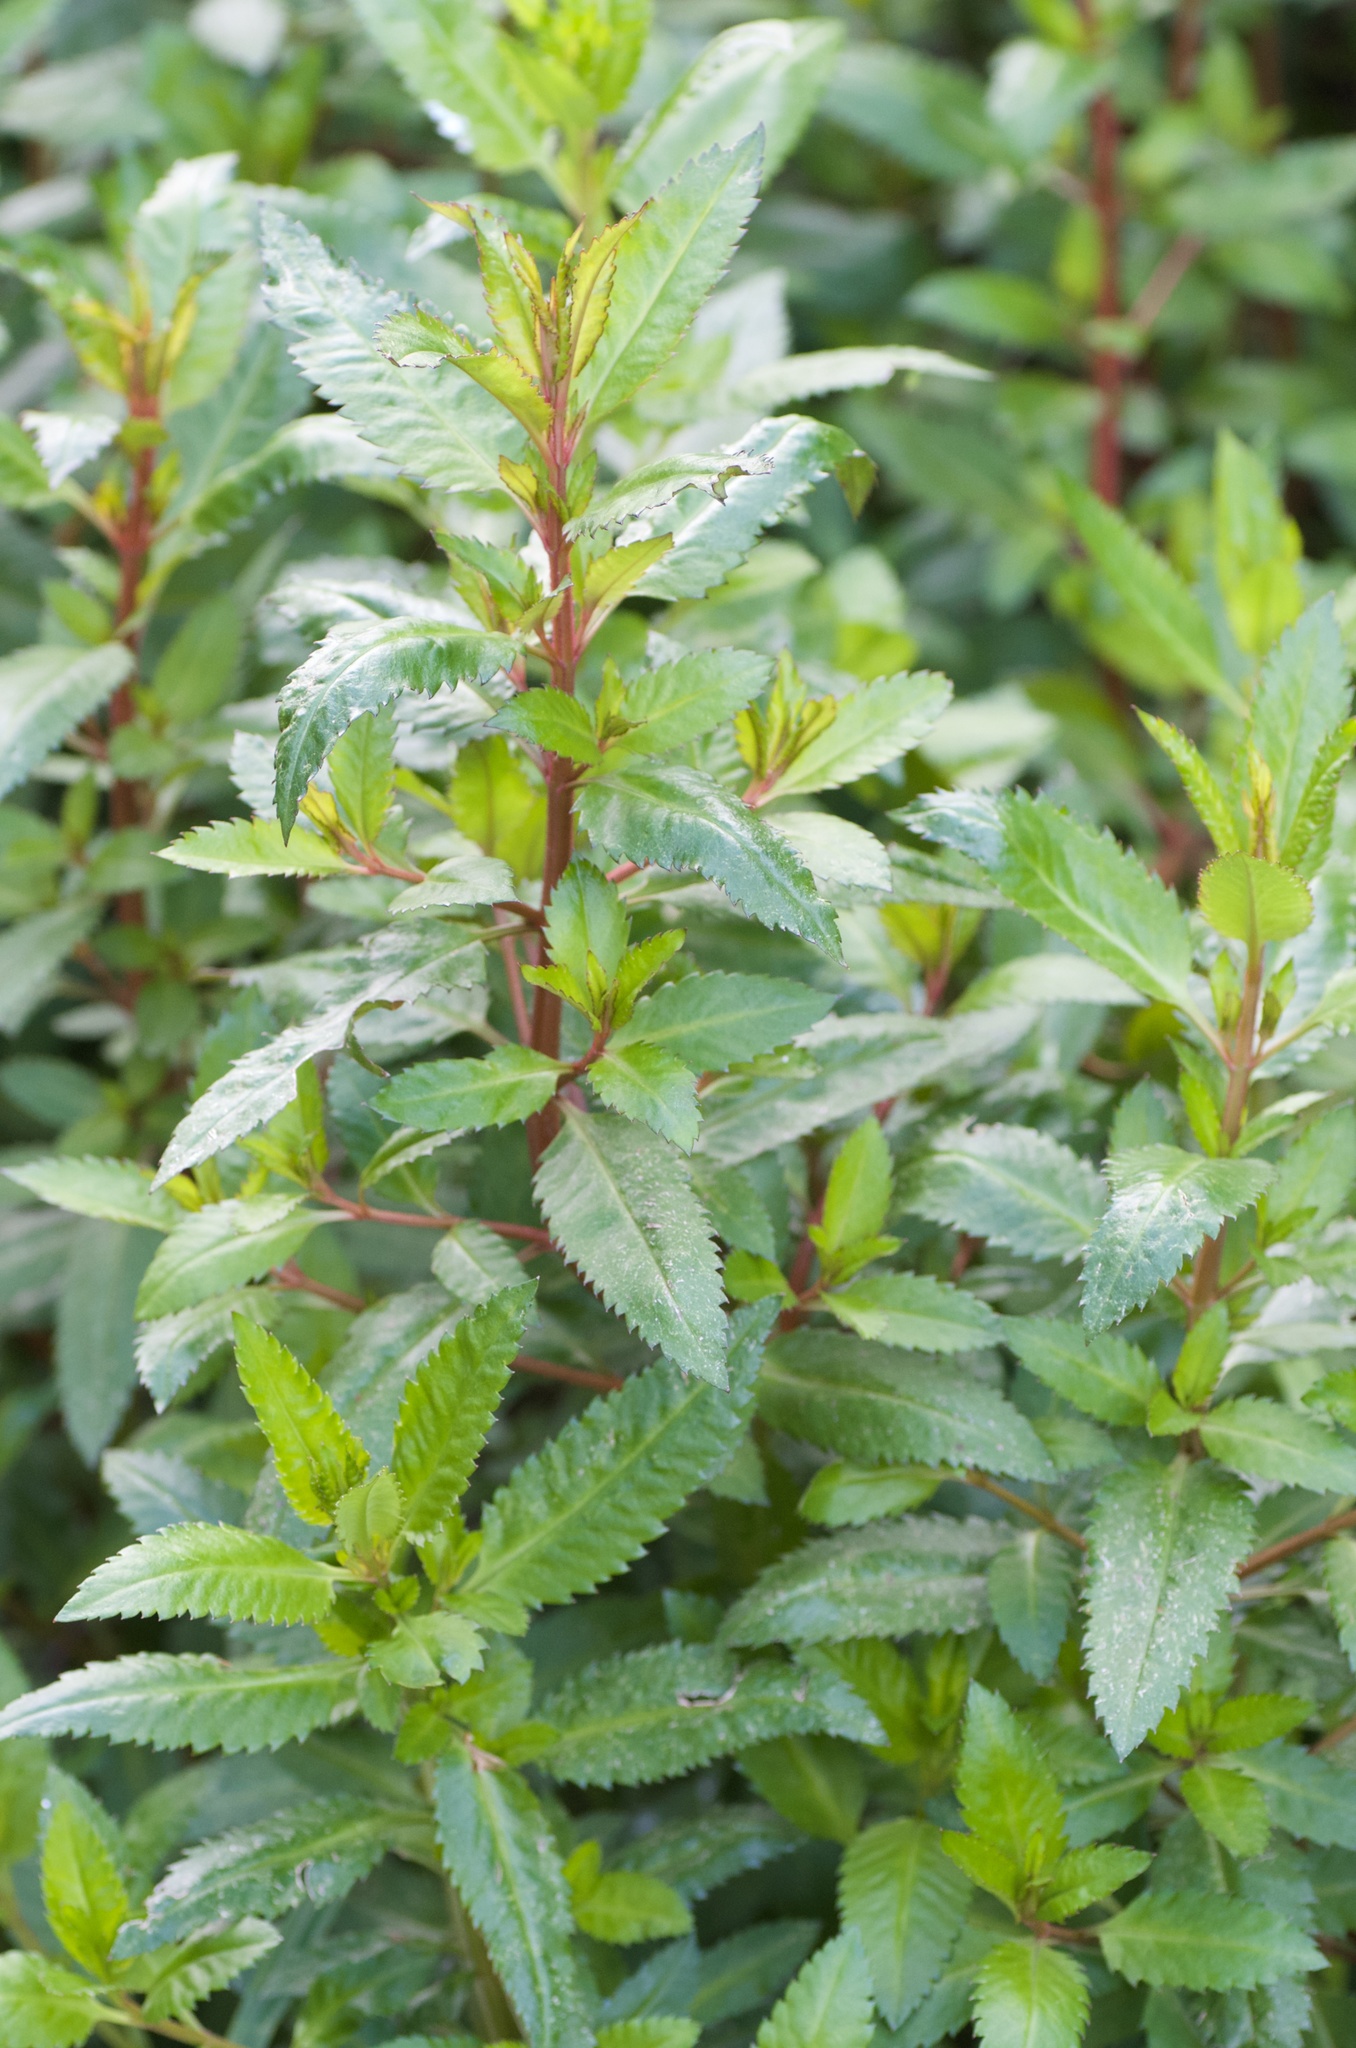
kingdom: Plantae
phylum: Tracheophyta
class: Magnoliopsida
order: Saxifragales
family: Haloragaceae
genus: Haloragis
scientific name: Haloragis erecta
